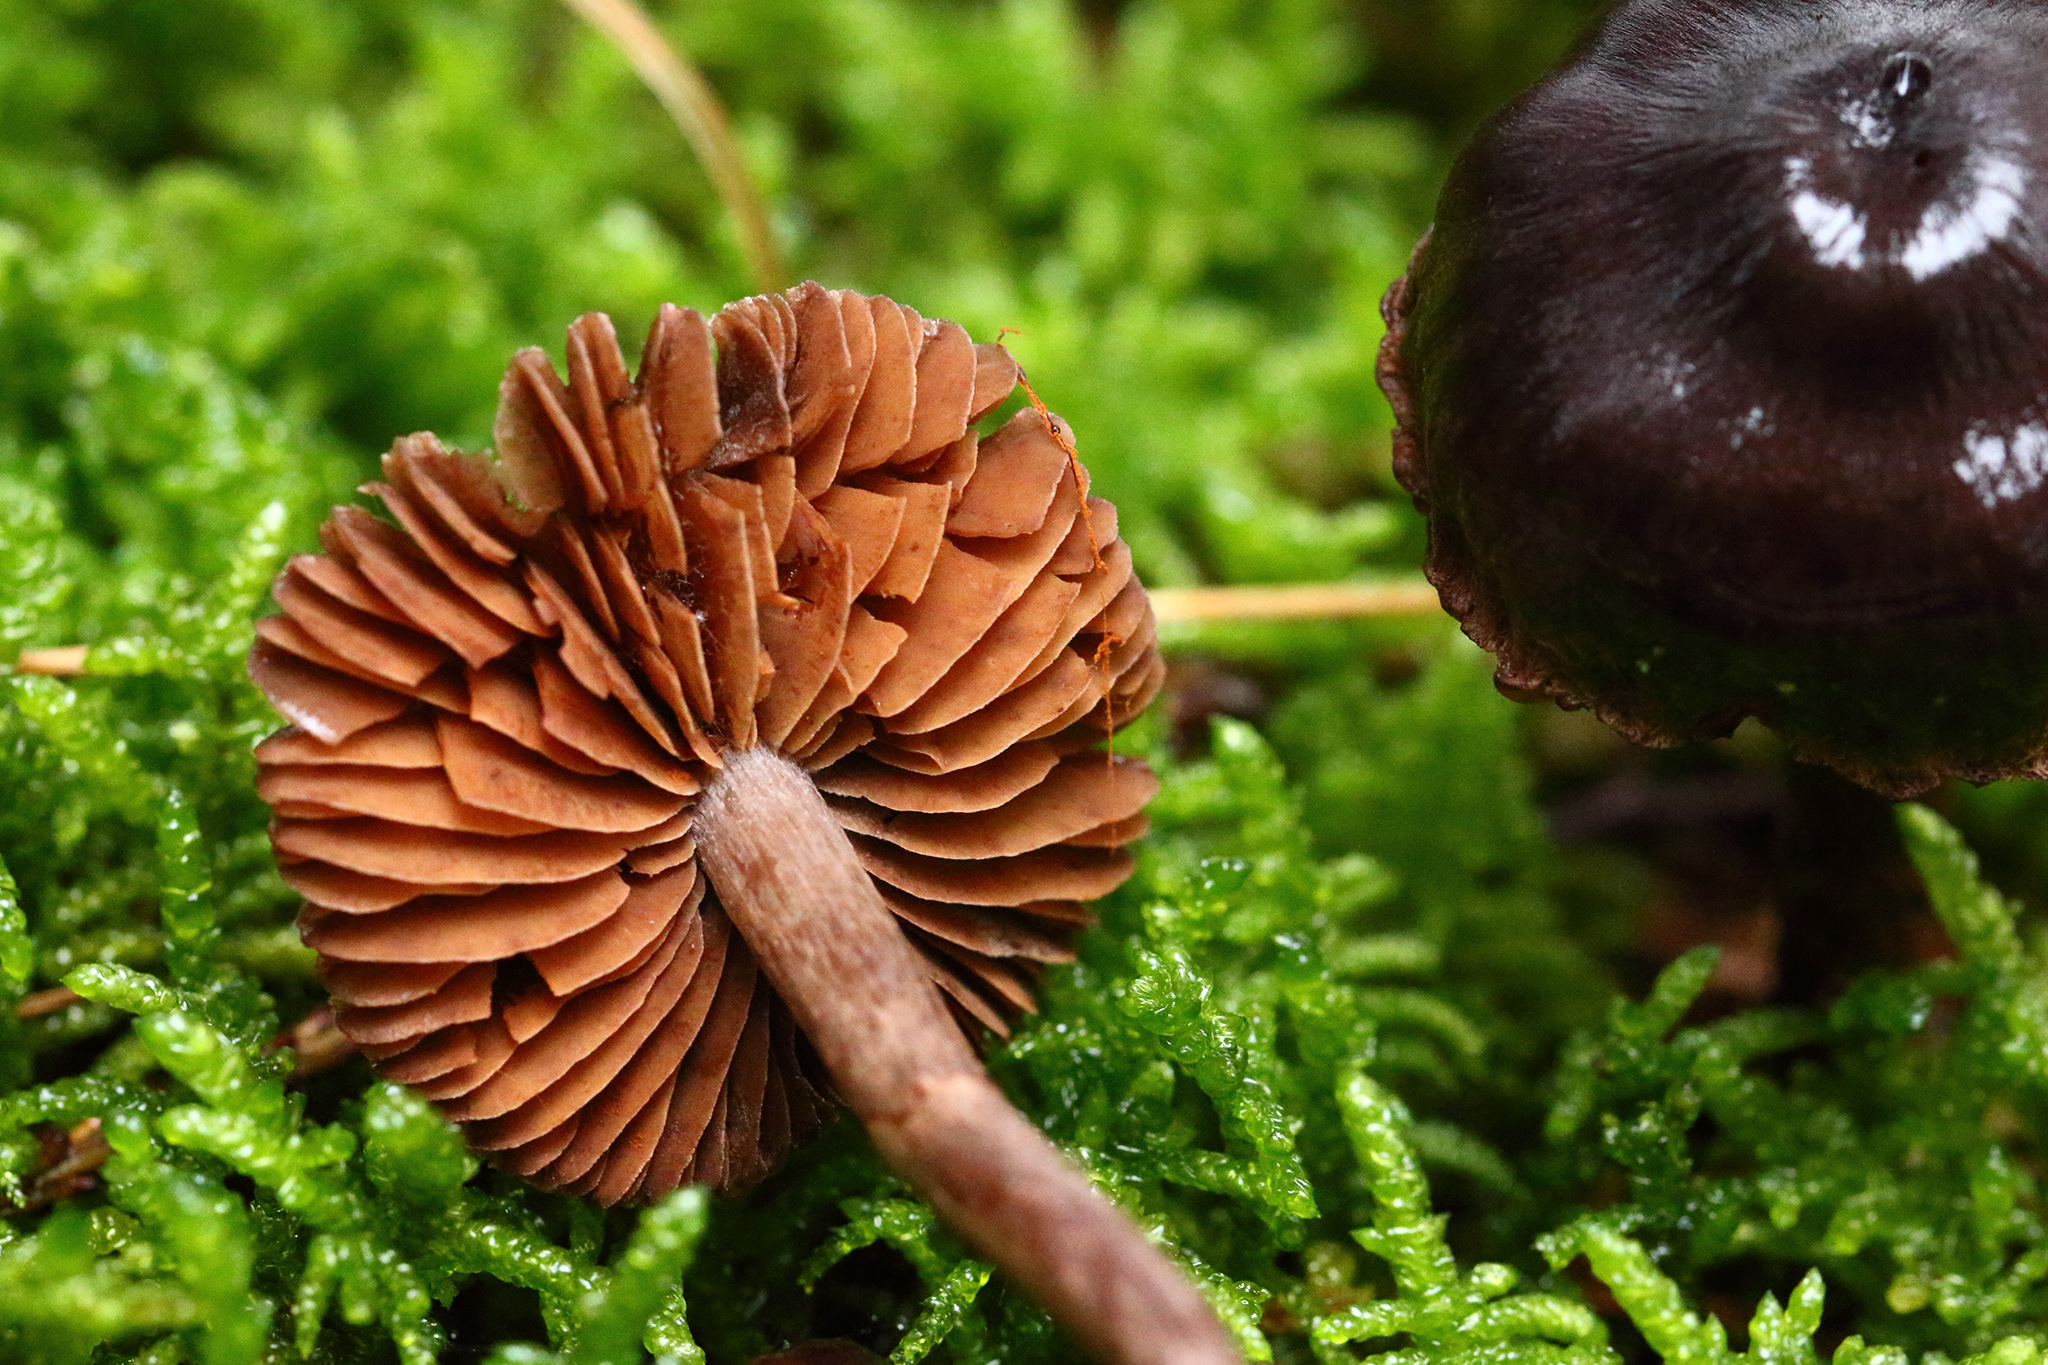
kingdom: Fungi
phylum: Basidiomycota
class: Agaricomycetes
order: Agaricales
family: Cortinariaceae
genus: Cortinarius
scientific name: Cortinarius anthracinus
